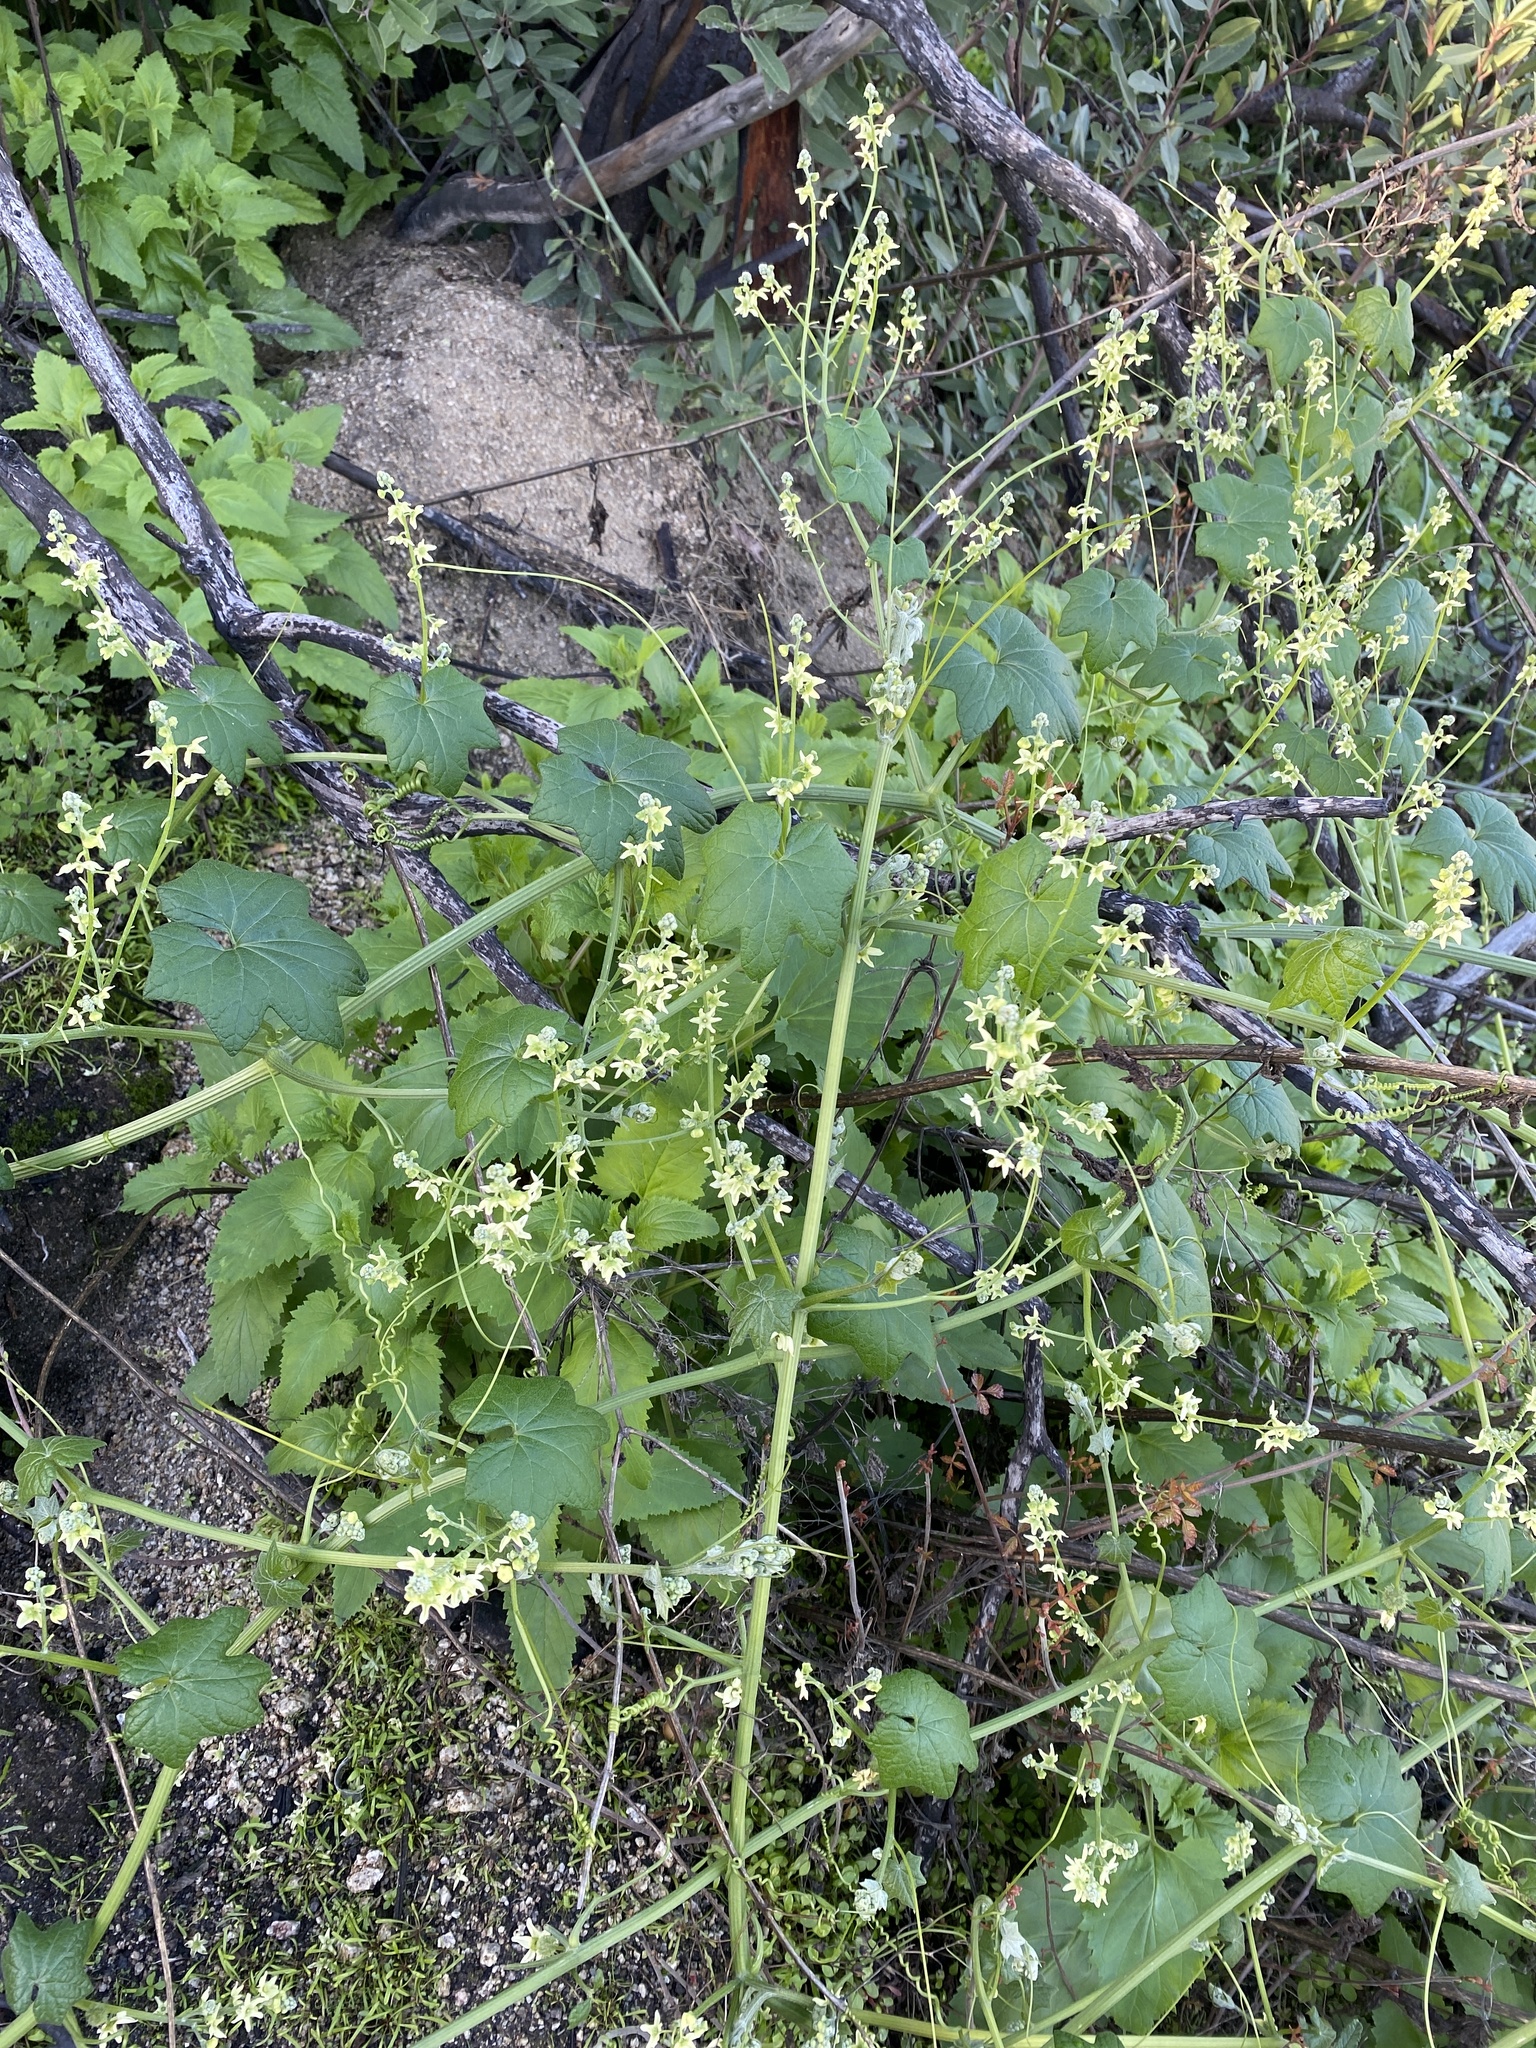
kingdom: Plantae
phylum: Tracheophyta
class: Magnoliopsida
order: Cucurbitales
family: Cucurbitaceae
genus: Marah
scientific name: Marah fabacea
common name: California manroot
